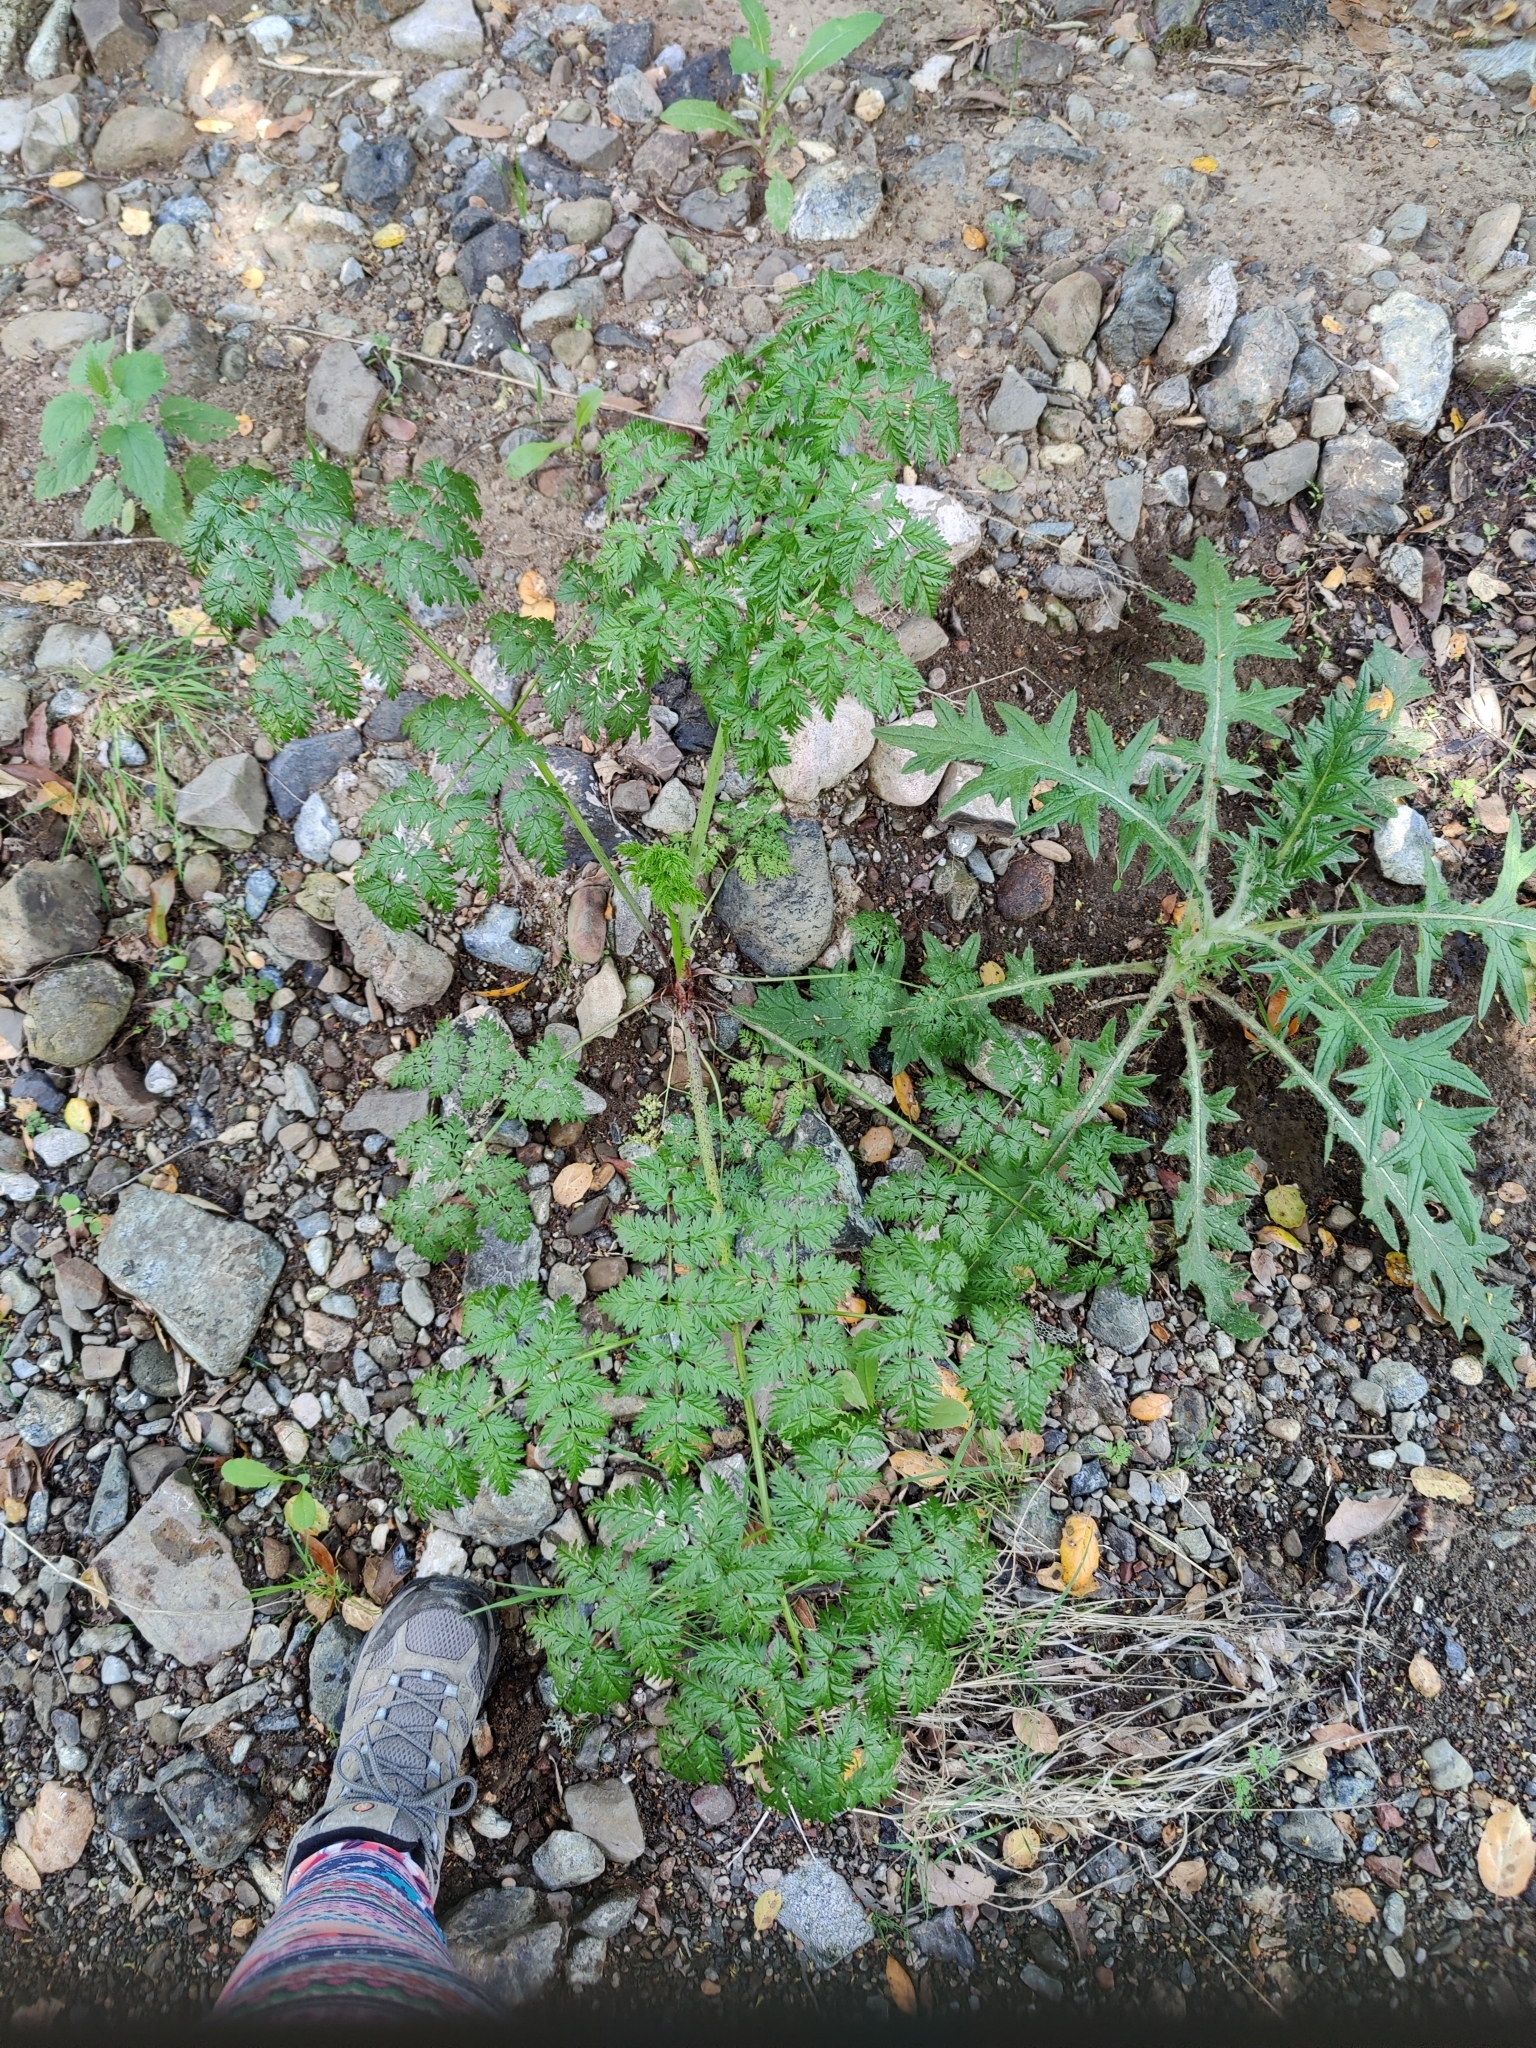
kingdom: Plantae
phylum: Tracheophyta
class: Magnoliopsida
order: Apiales
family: Apiaceae
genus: Conium
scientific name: Conium maculatum
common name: Hemlock
